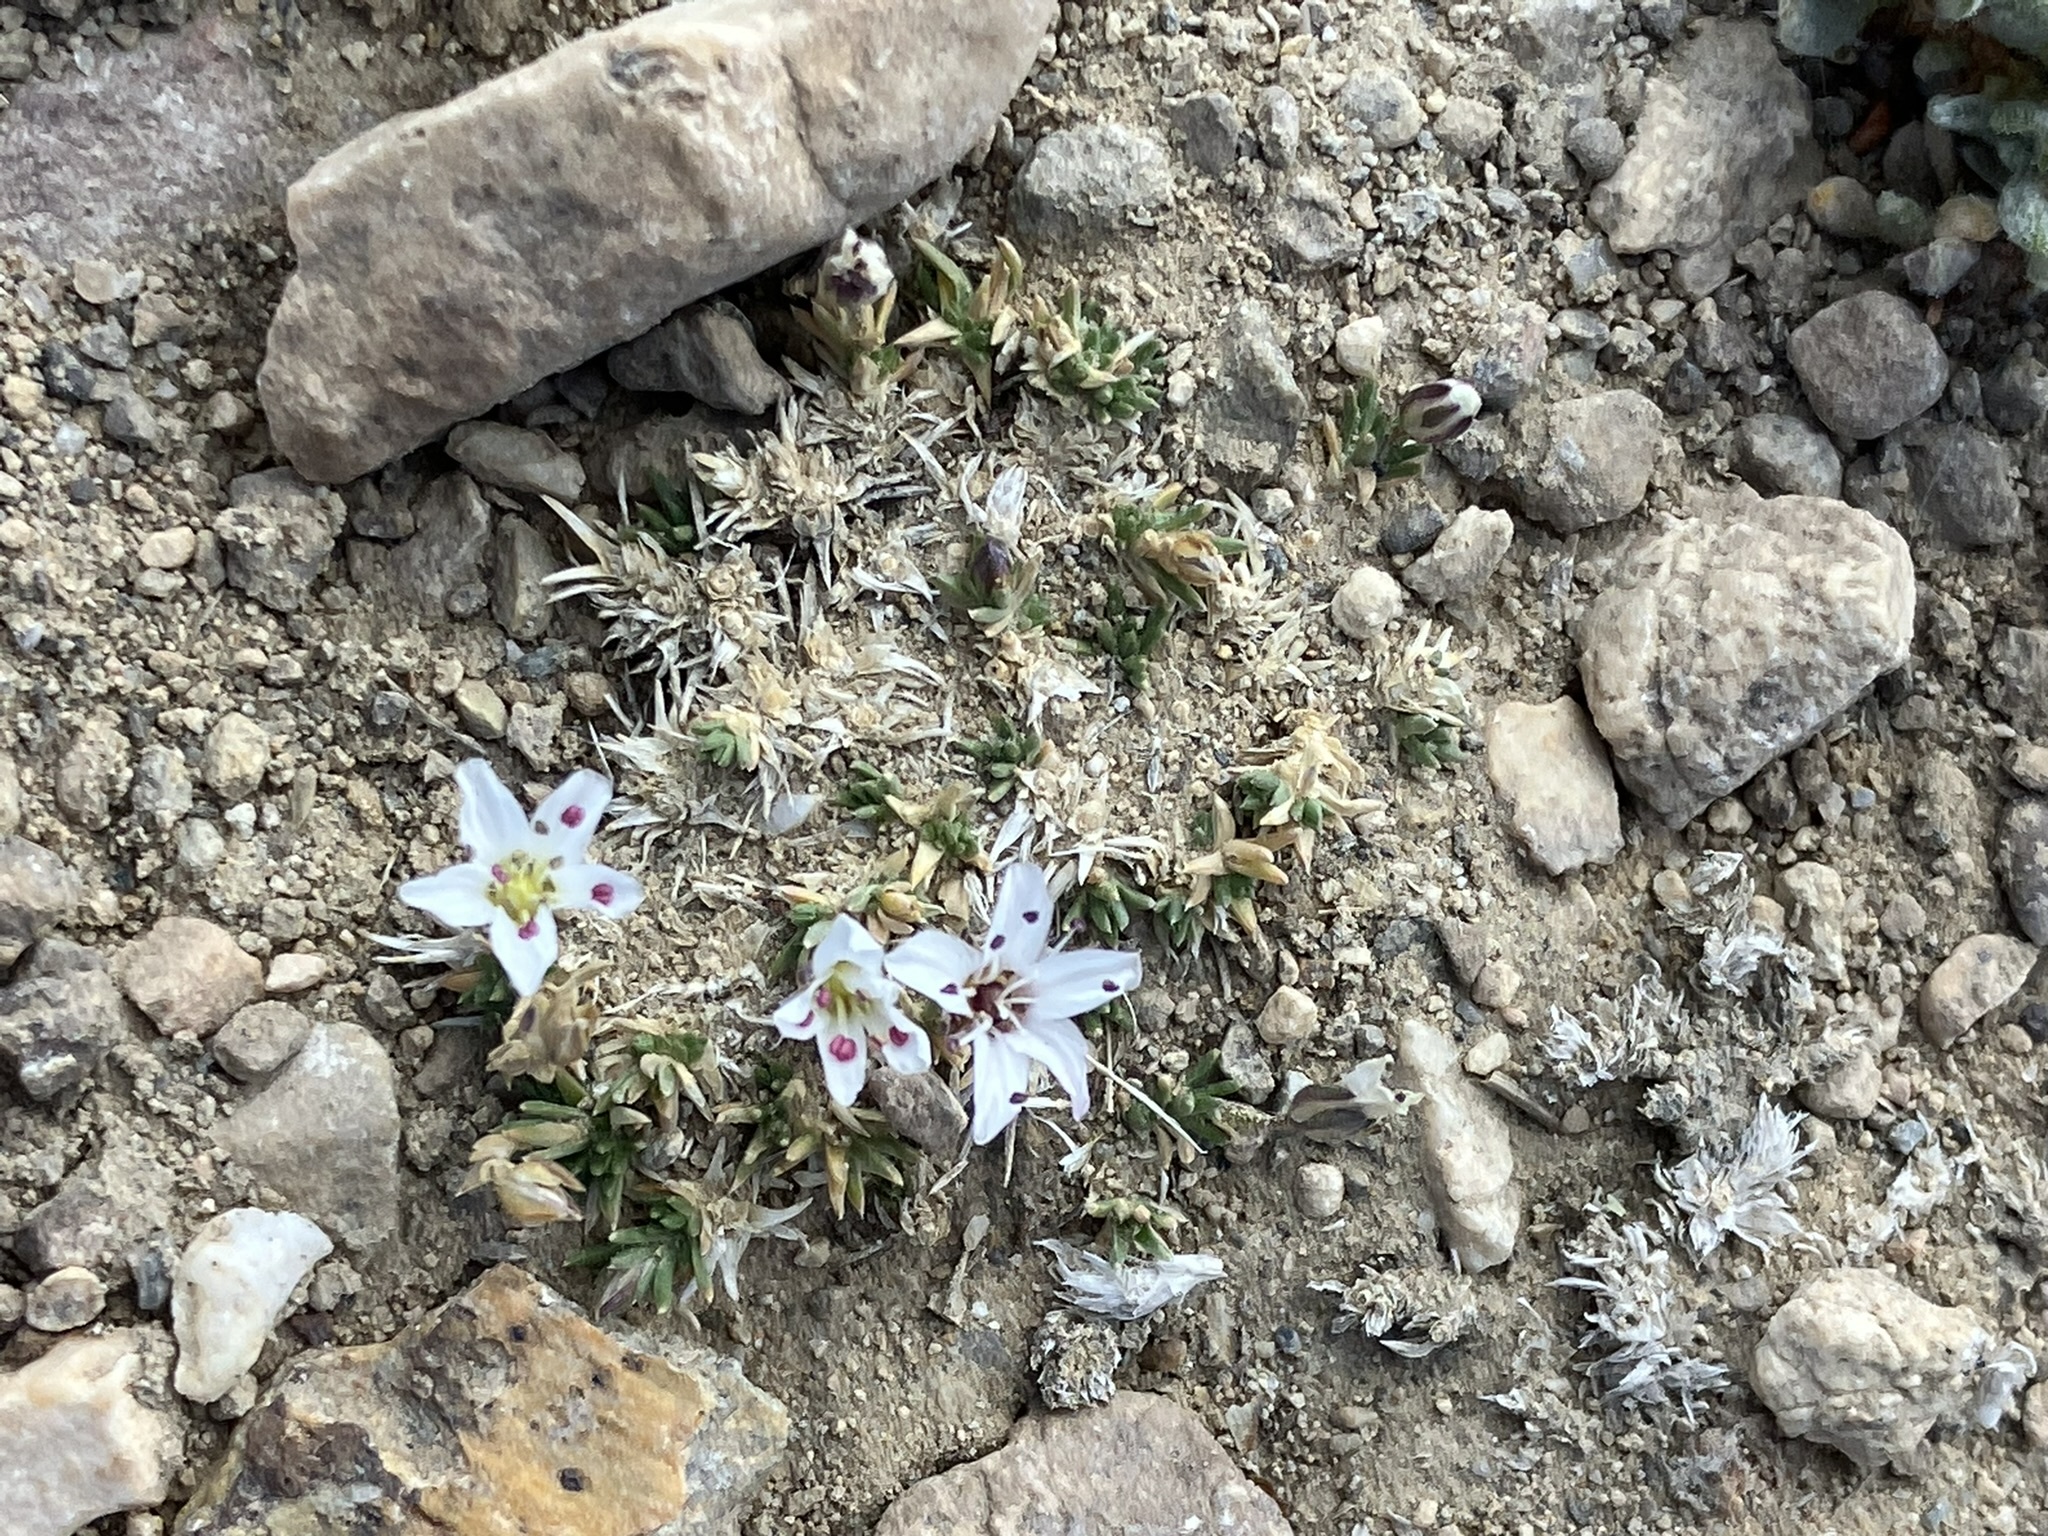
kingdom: Plantae
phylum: Tracheophyta
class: Magnoliopsida
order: Caryophyllales
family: Caryophyllaceae
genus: Eremogone
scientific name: Eremogone kingii
